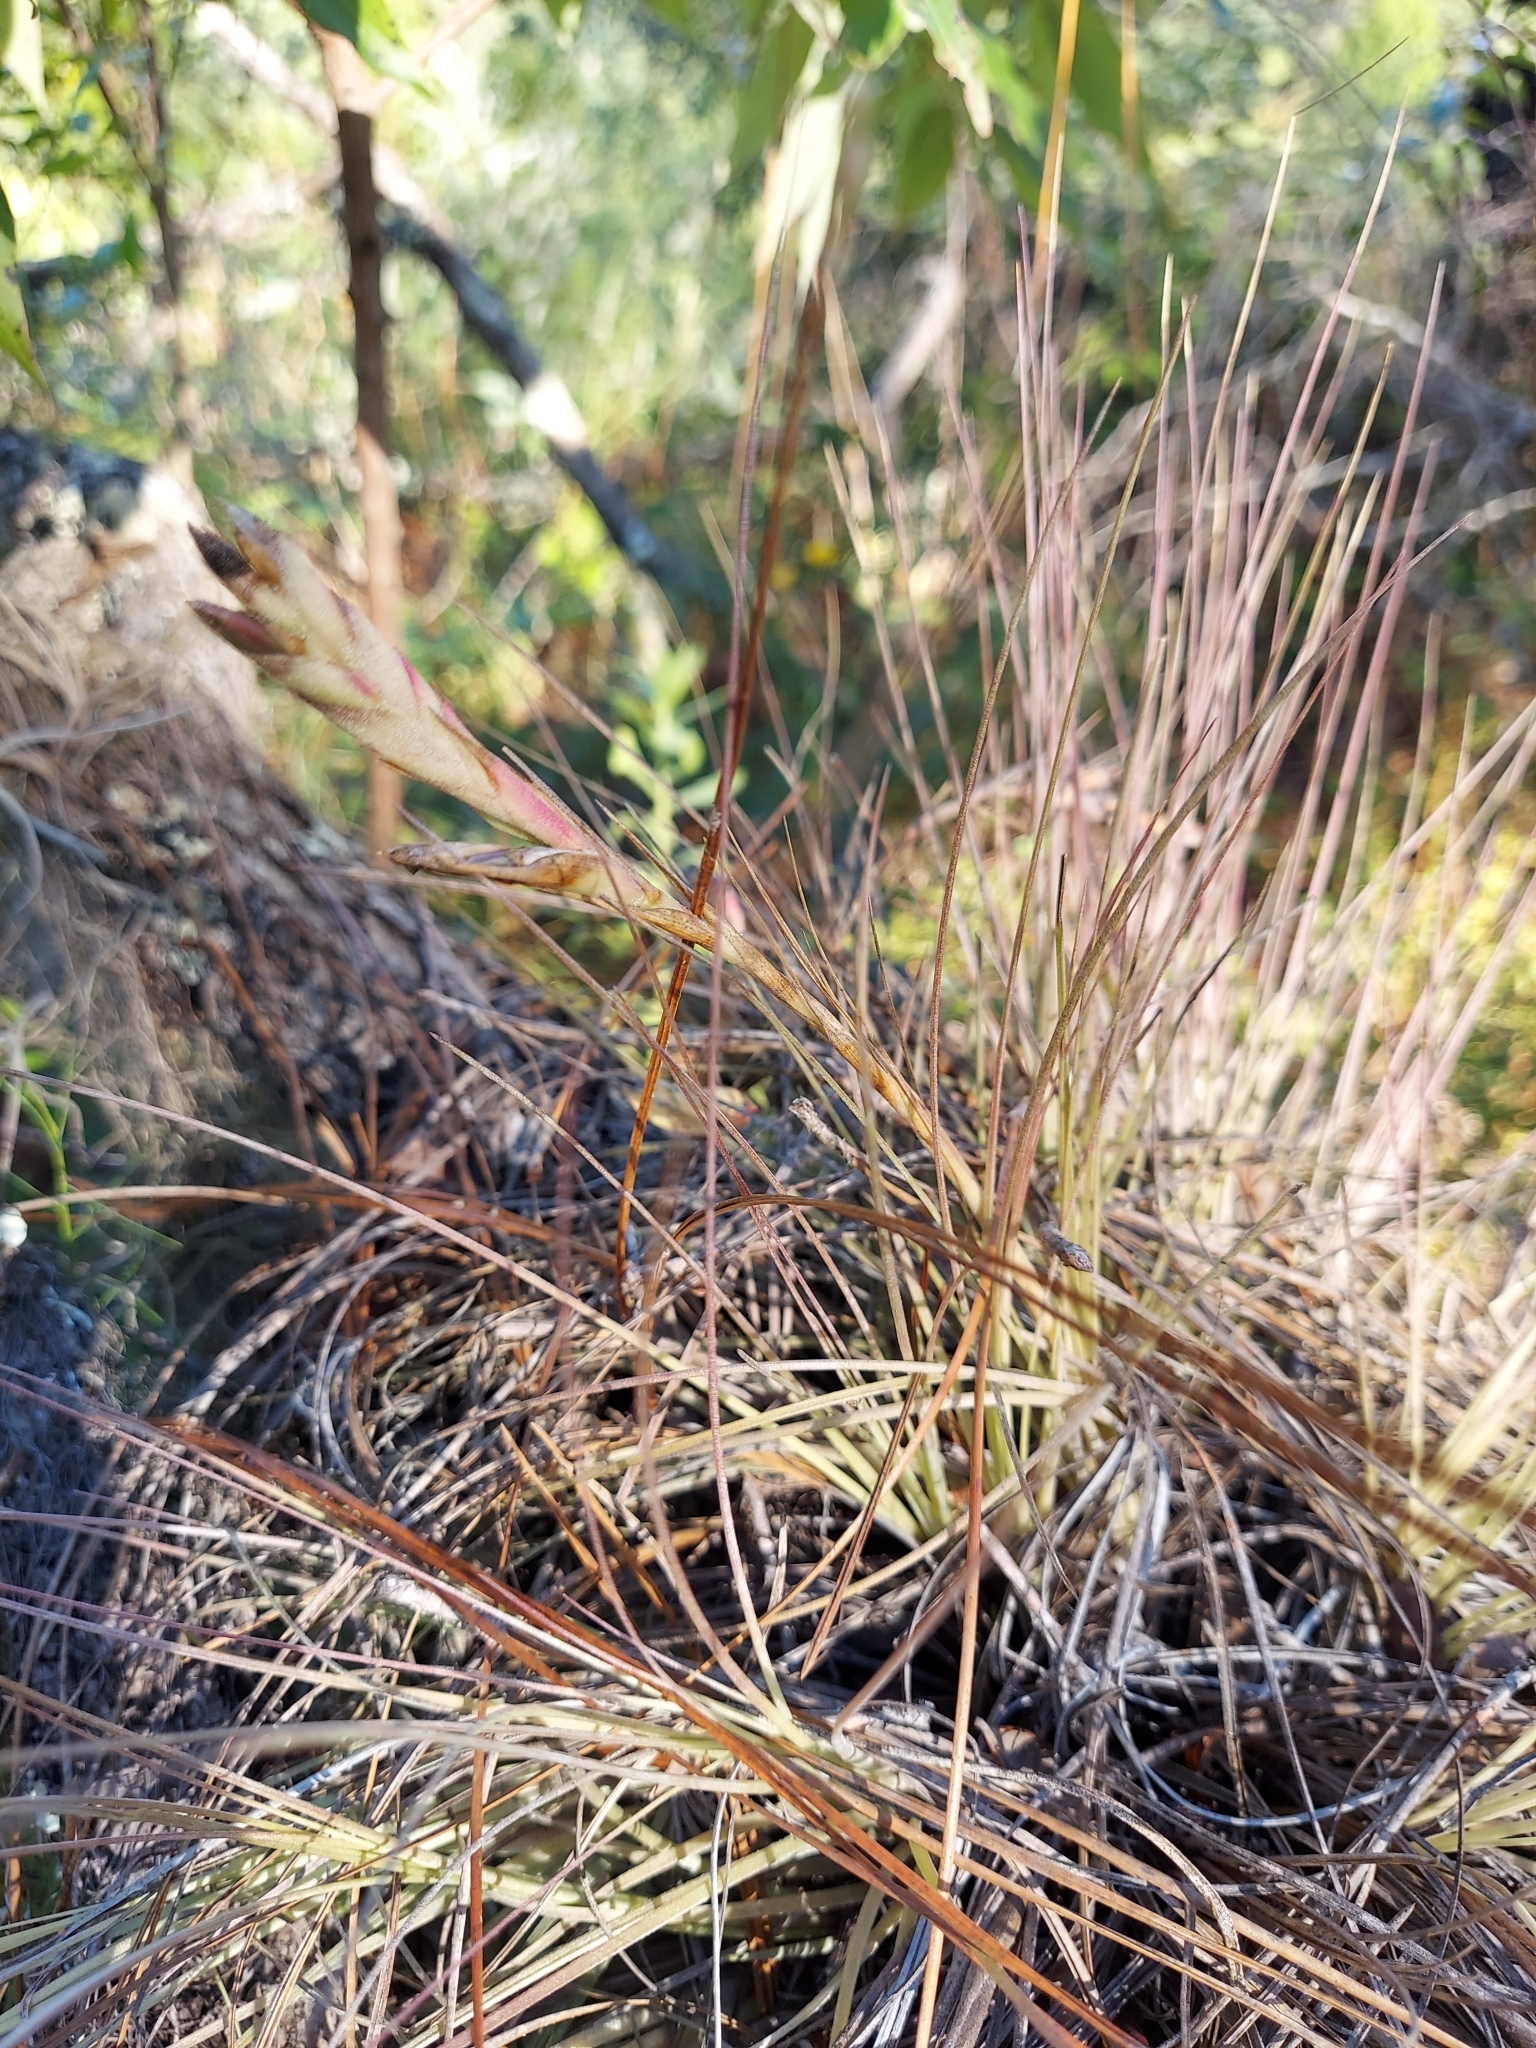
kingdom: Plantae
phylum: Tracheophyta
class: Liliopsida
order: Poales
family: Bromeliaceae
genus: Tillandsia
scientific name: Tillandsia bartramii
